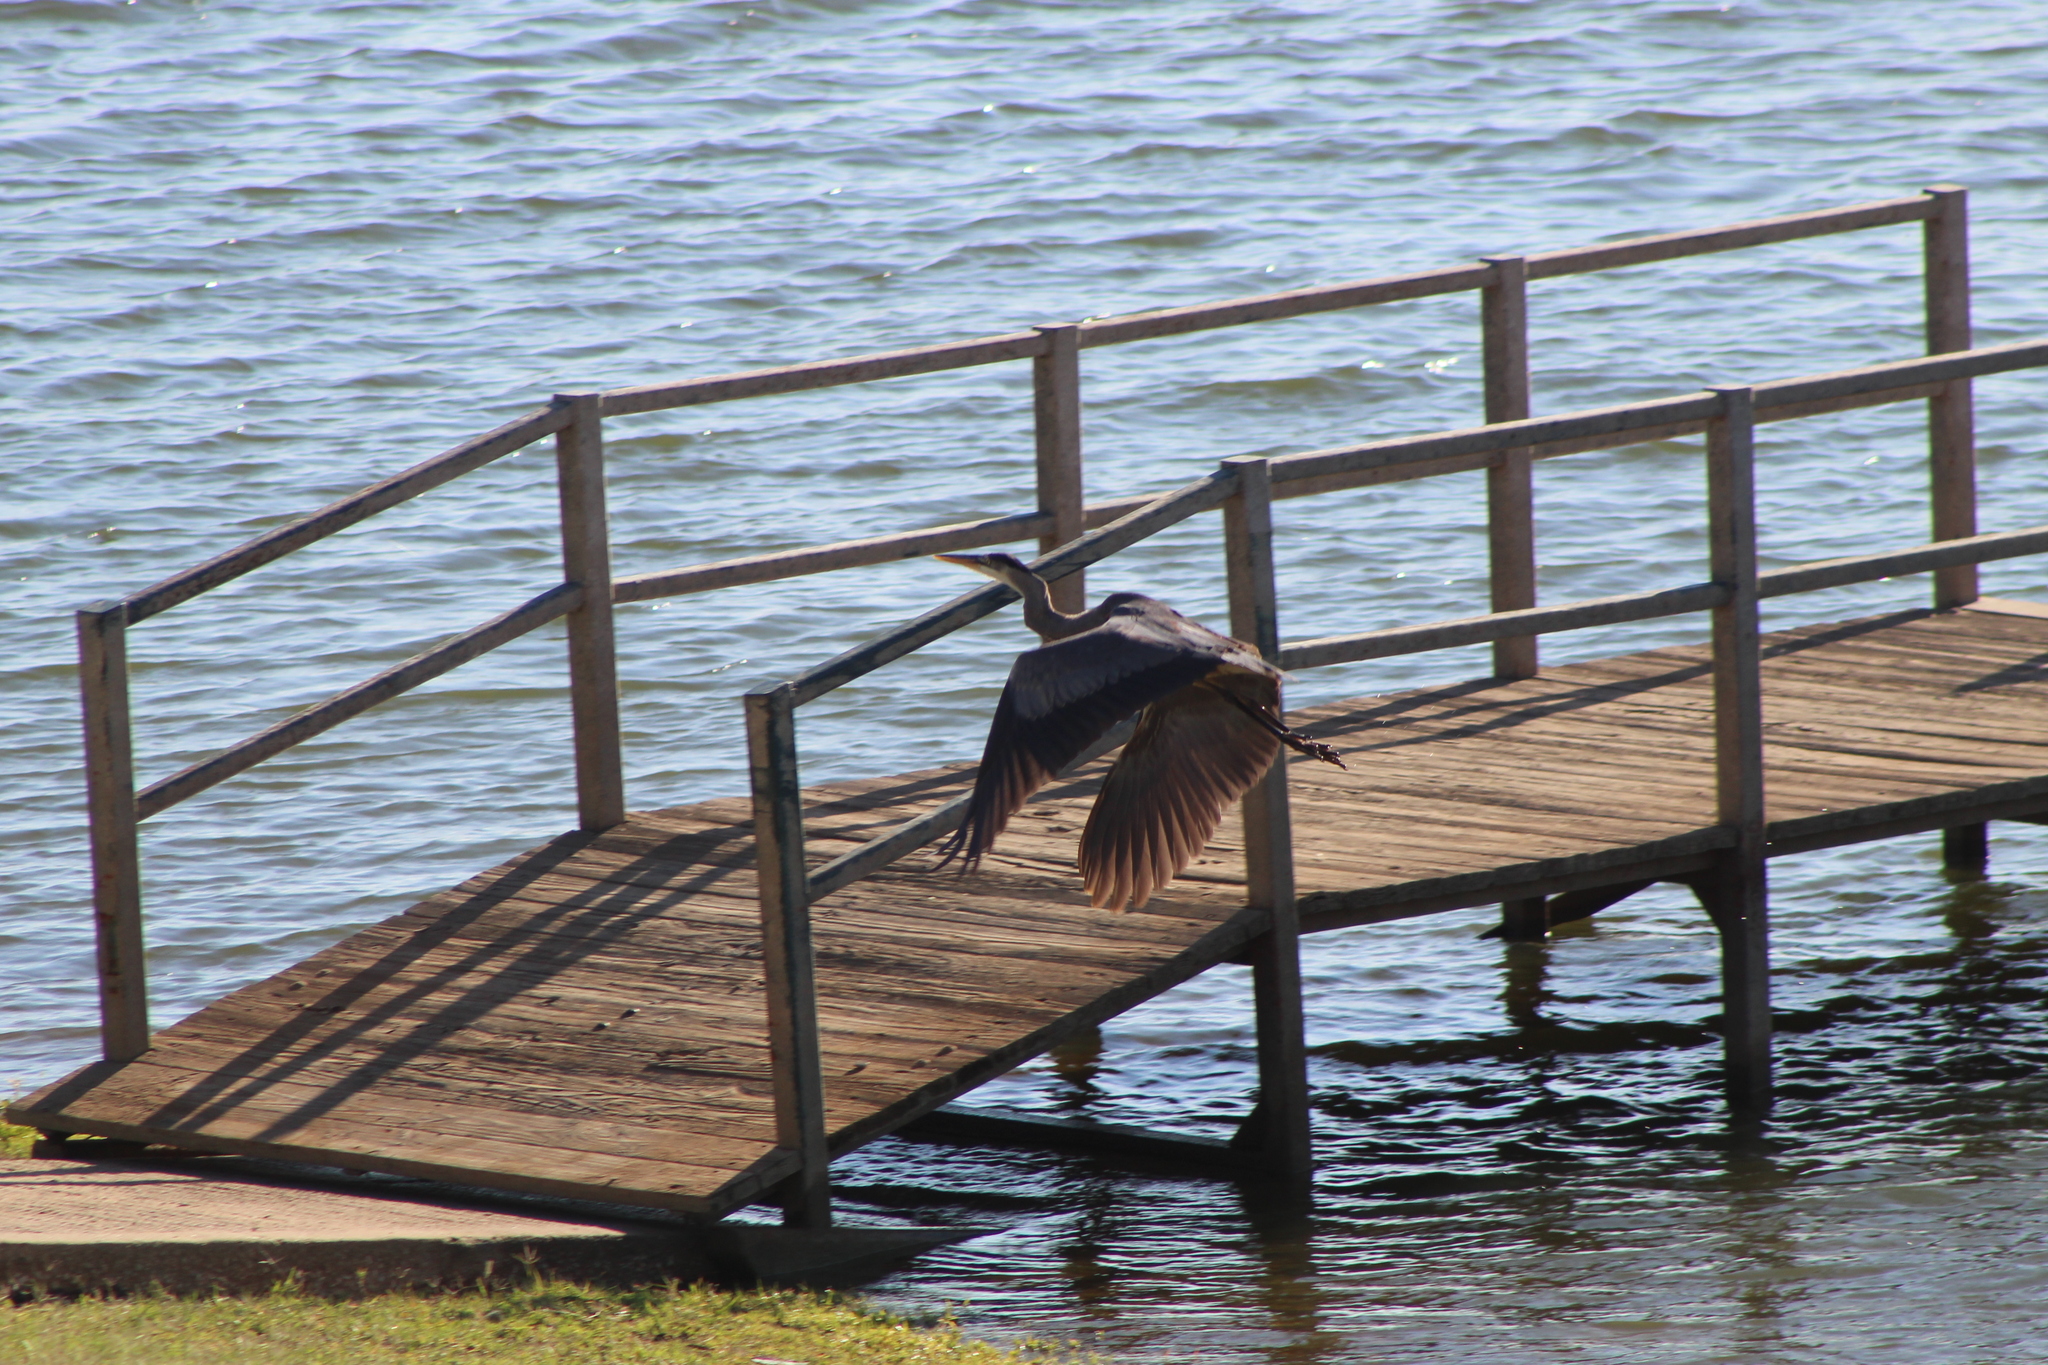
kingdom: Animalia
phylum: Chordata
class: Aves
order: Pelecaniformes
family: Ardeidae
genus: Ardea
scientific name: Ardea herodias
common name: Great blue heron
